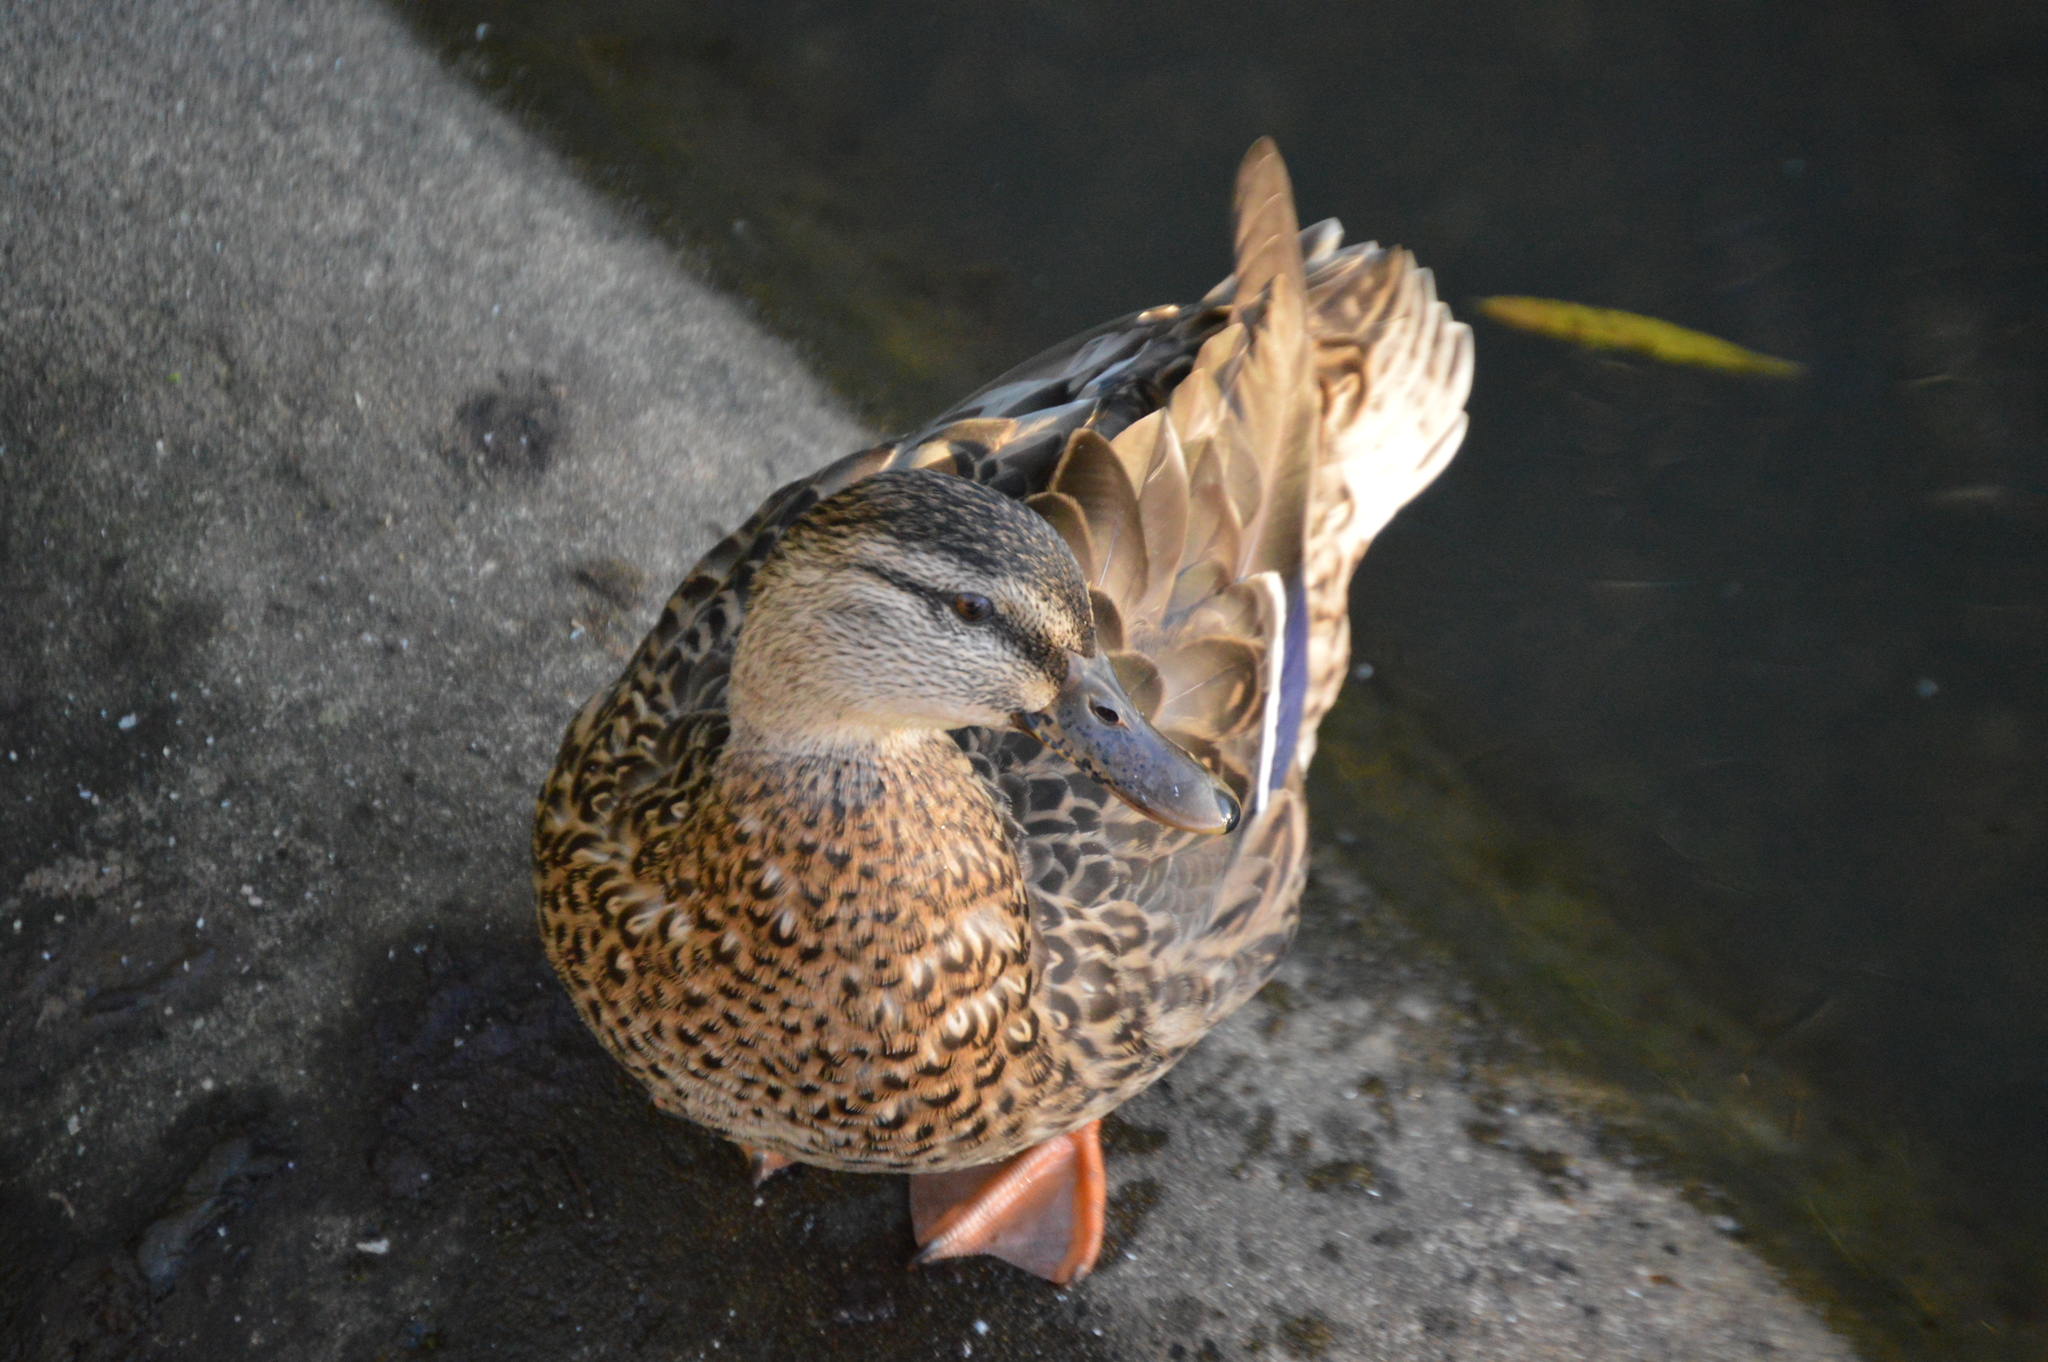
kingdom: Animalia
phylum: Chordata
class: Aves
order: Anseriformes
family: Anatidae
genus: Anas
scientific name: Anas platyrhynchos
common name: Mallard
